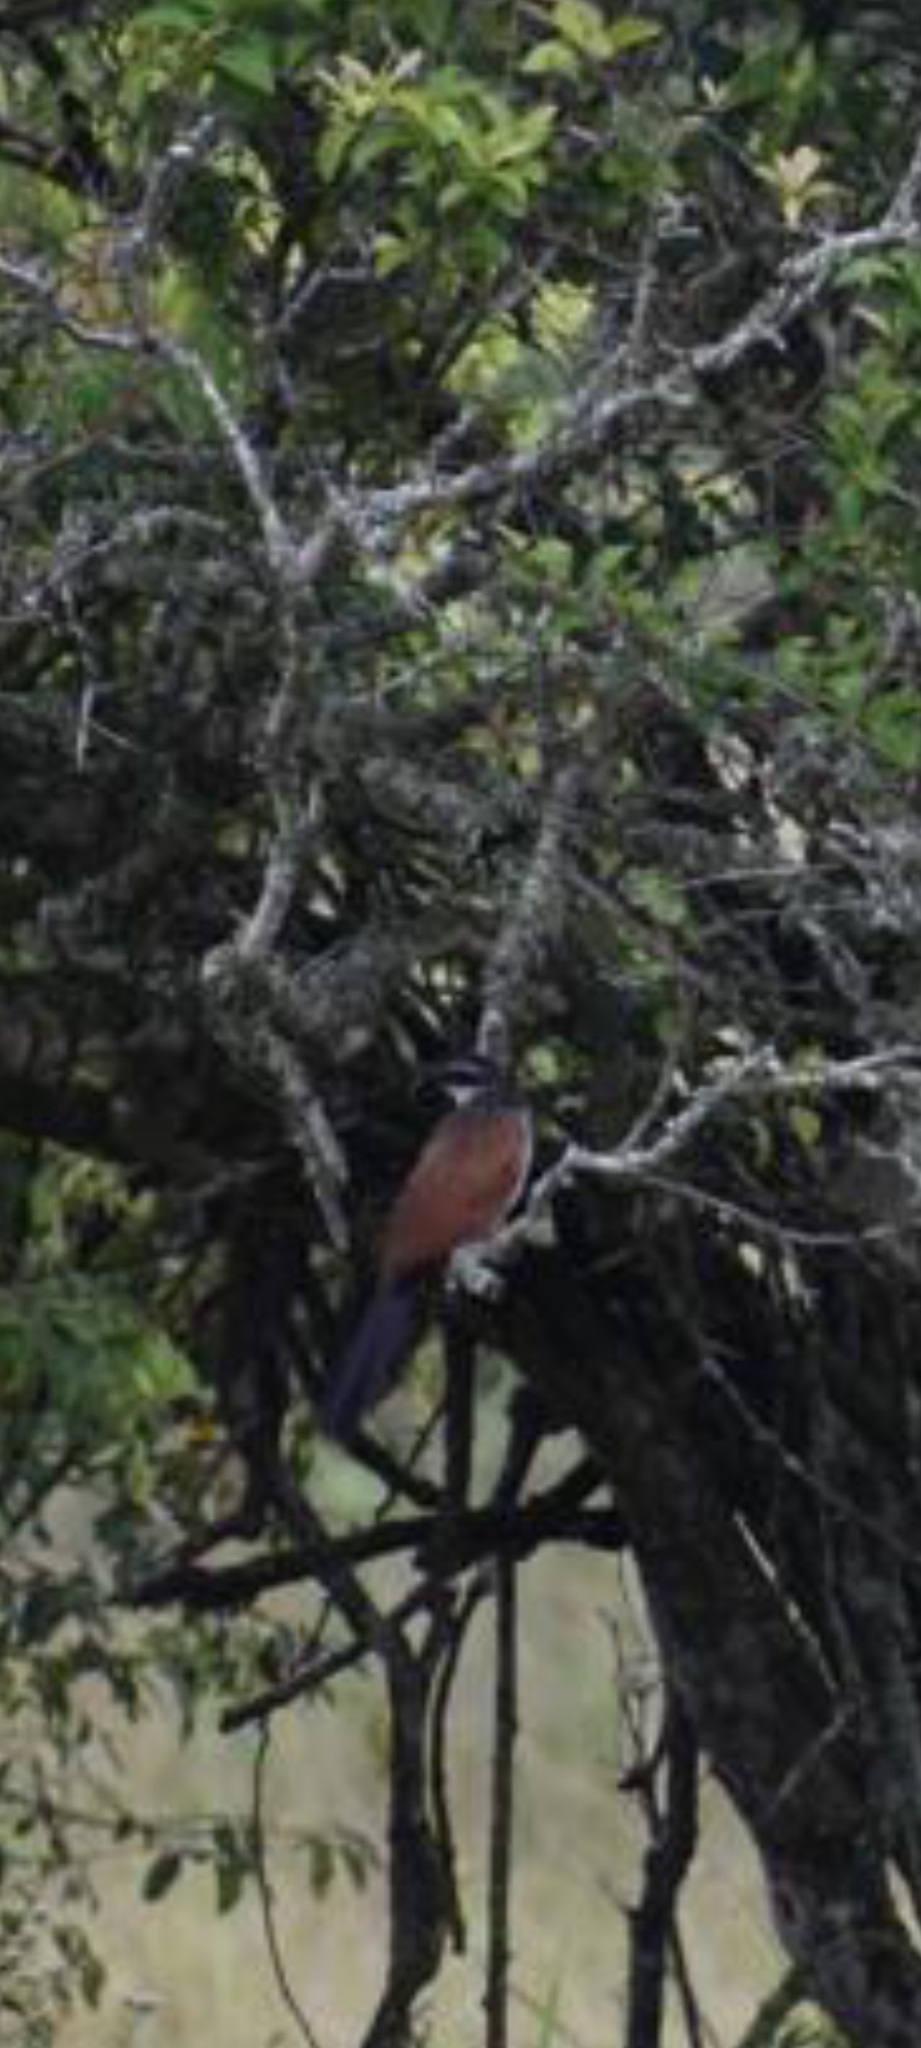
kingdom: Animalia
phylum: Chordata
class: Aves
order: Cuculiformes
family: Cuculidae
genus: Centropus
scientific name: Centropus superciliosus
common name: White-browed coucal
